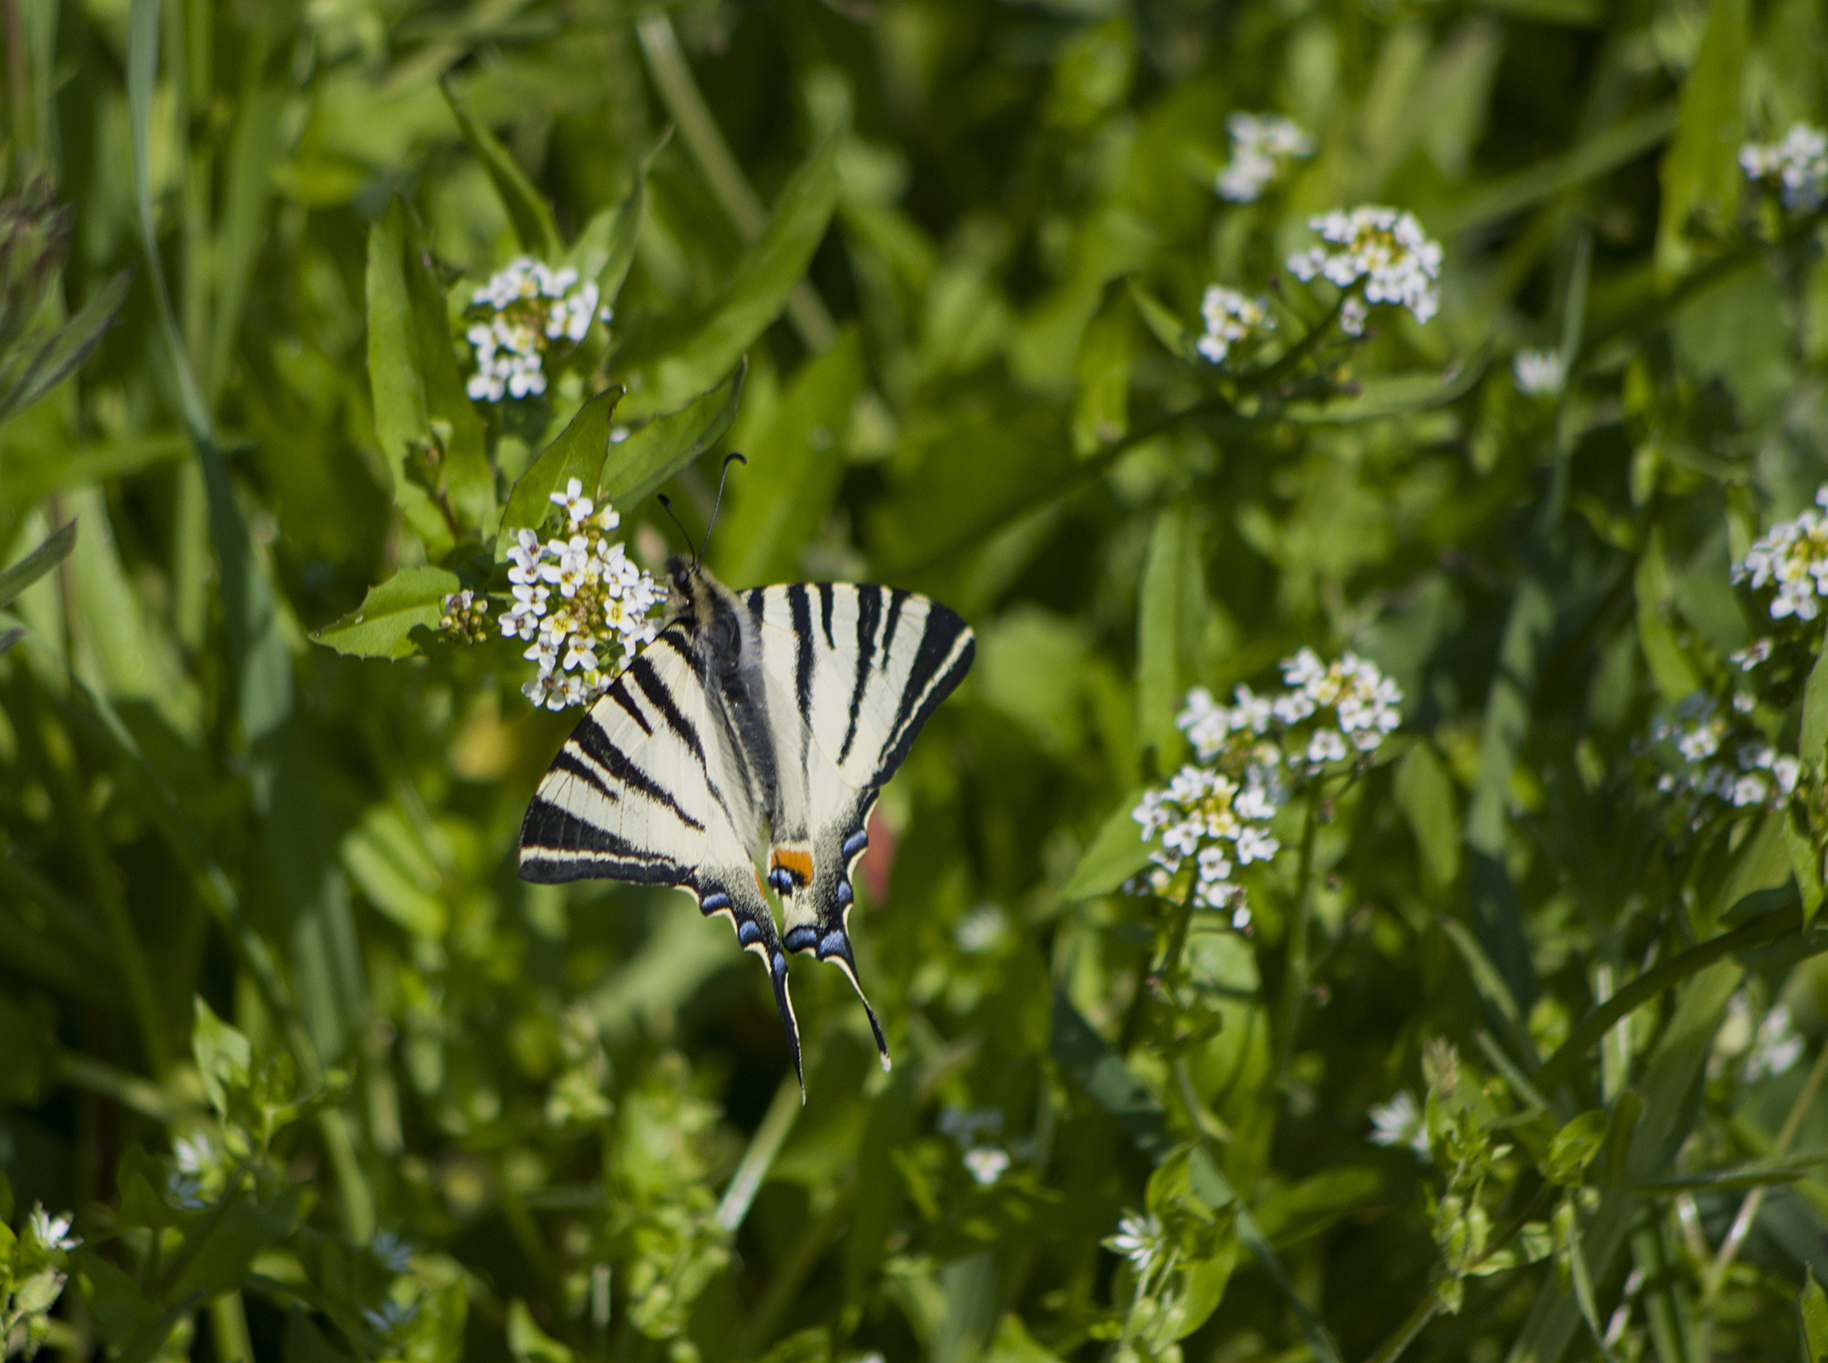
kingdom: Animalia
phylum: Arthropoda
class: Insecta
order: Lepidoptera
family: Papilionidae
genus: Iphiclides
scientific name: Iphiclides podalirius
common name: Scarce swallowtail
